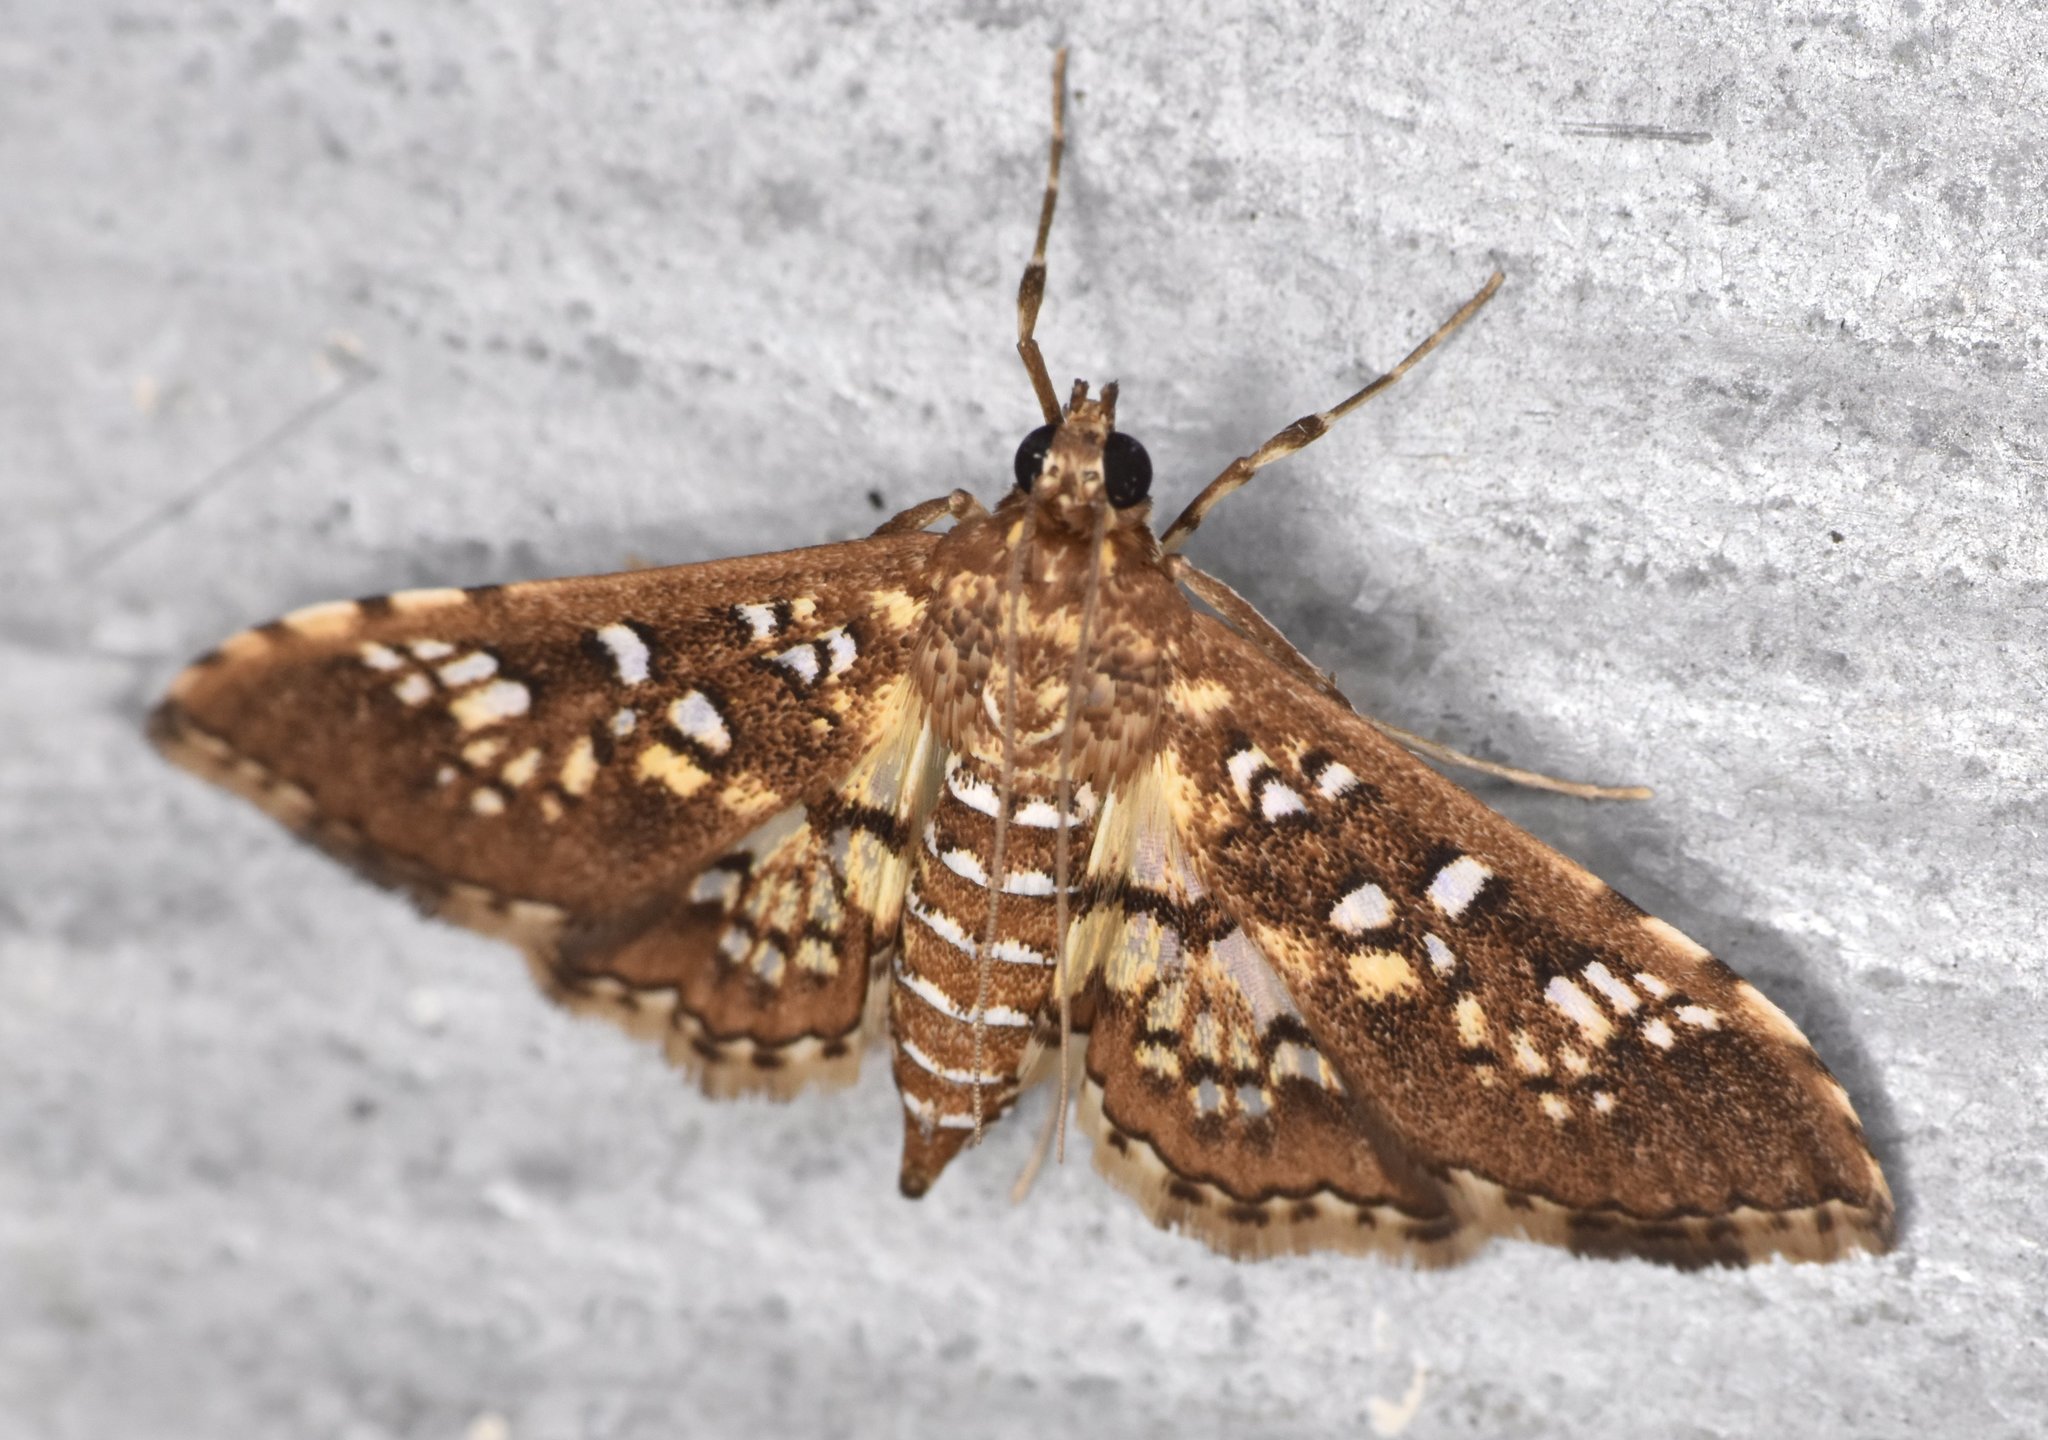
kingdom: Animalia
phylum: Arthropoda
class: Insecta
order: Lepidoptera
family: Crambidae
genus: Samea
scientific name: Samea ecclesialis
